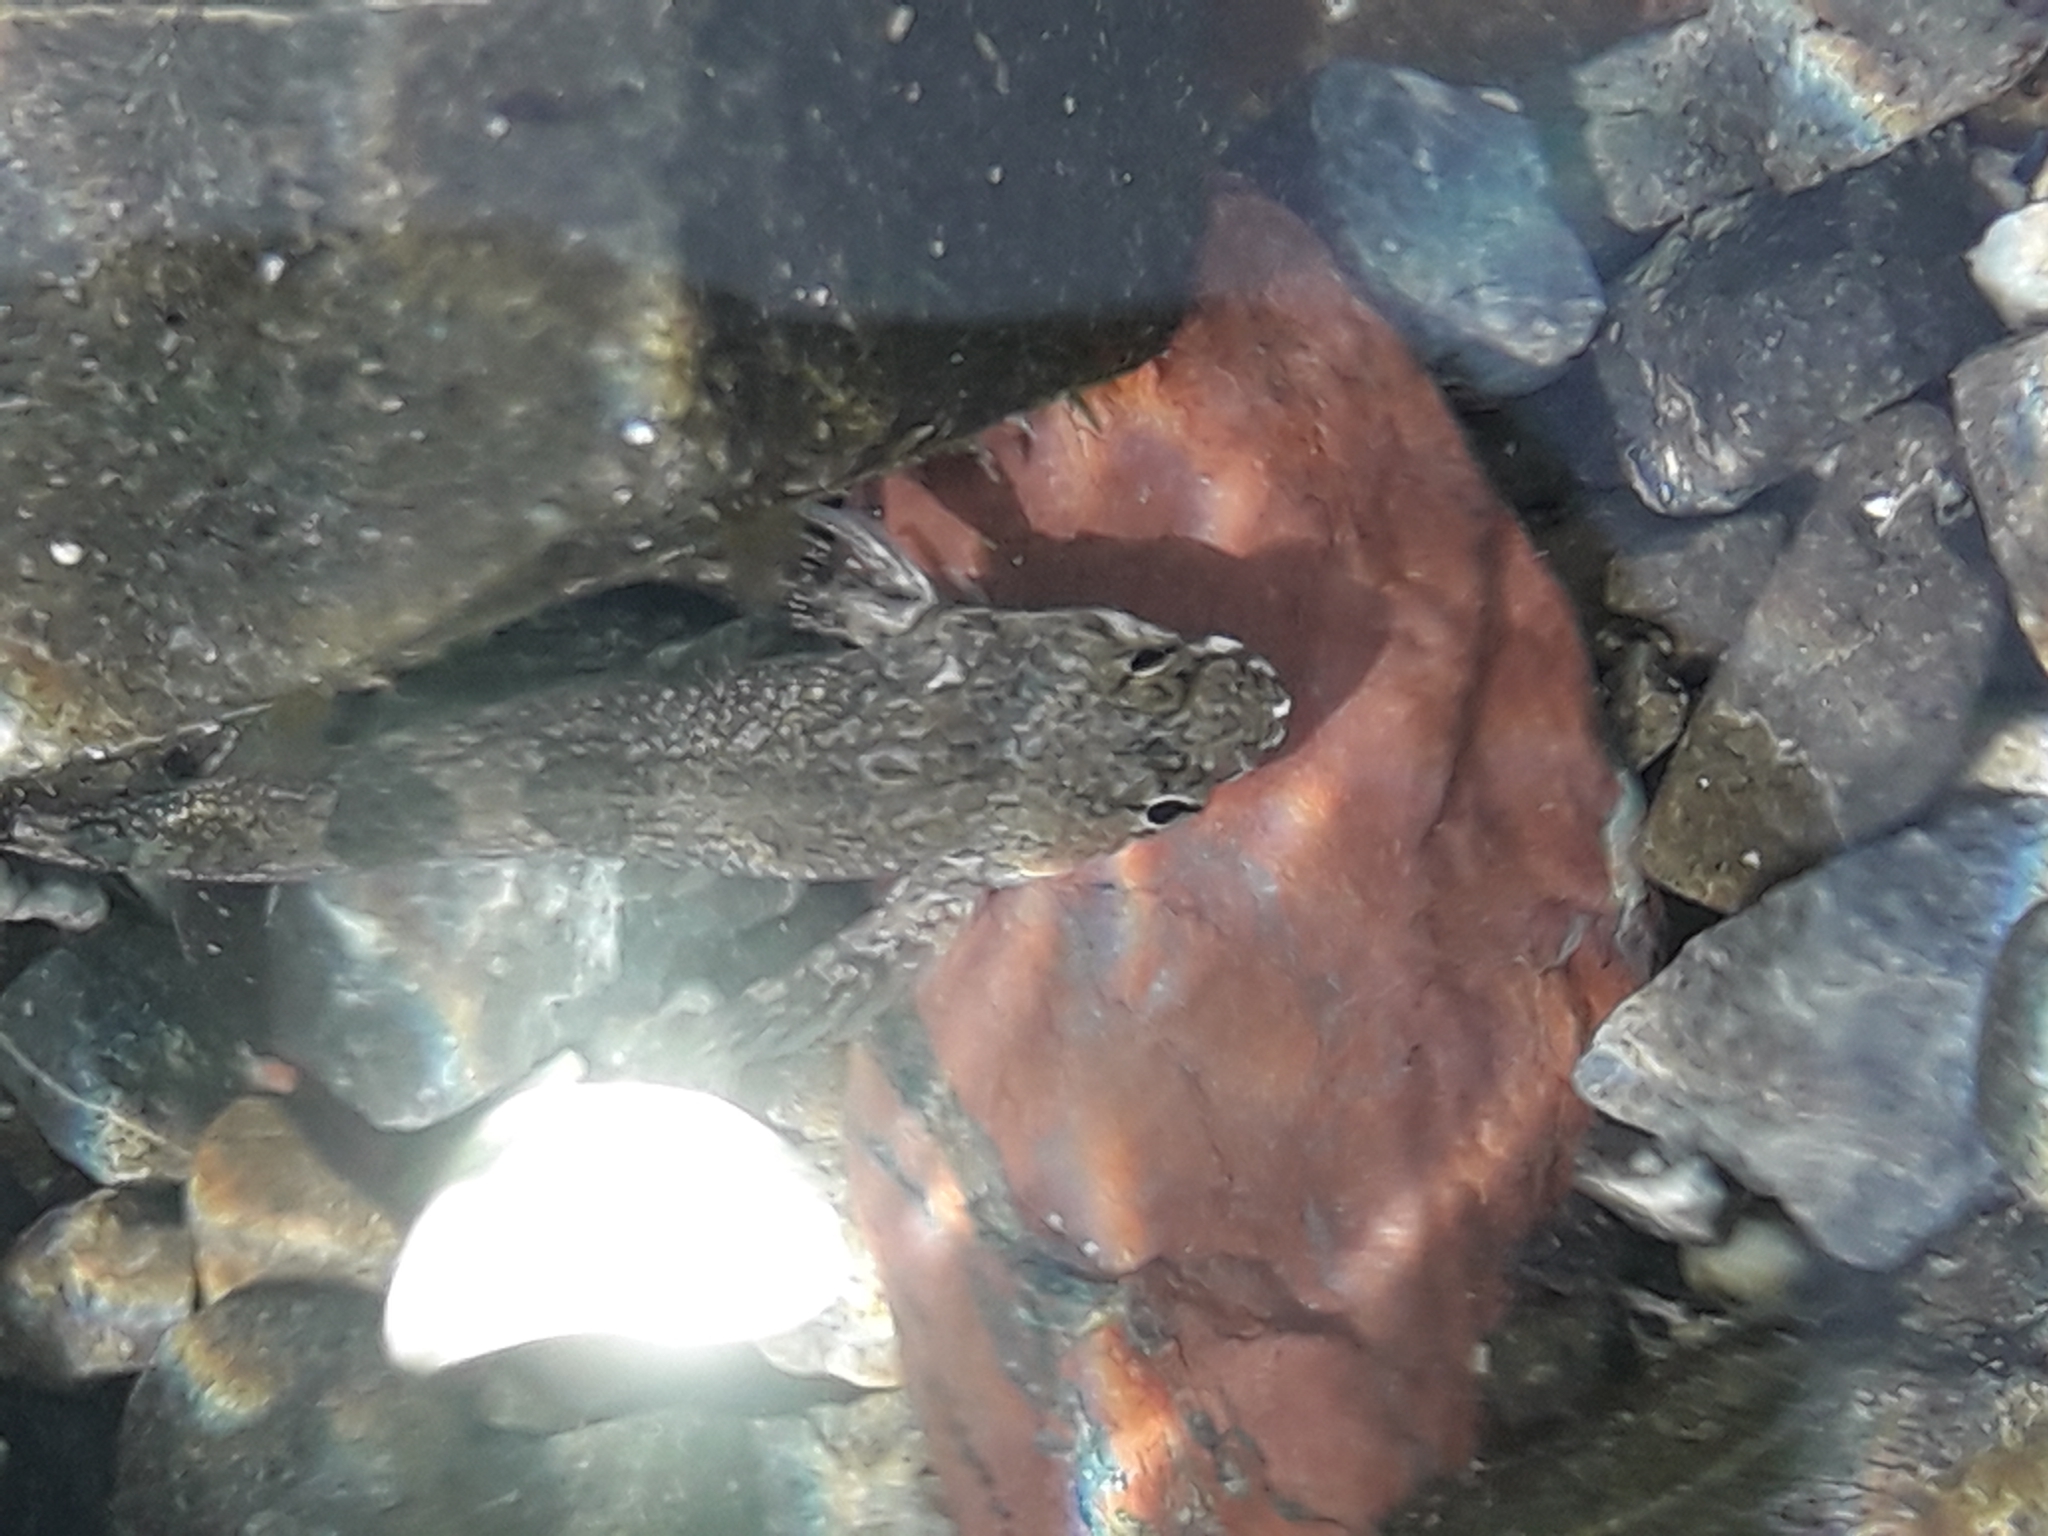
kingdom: Animalia
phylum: Chordata
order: Perciformes
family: Tripterygiidae
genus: Bellapiscis
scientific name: Bellapiscis medius
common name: Twister
